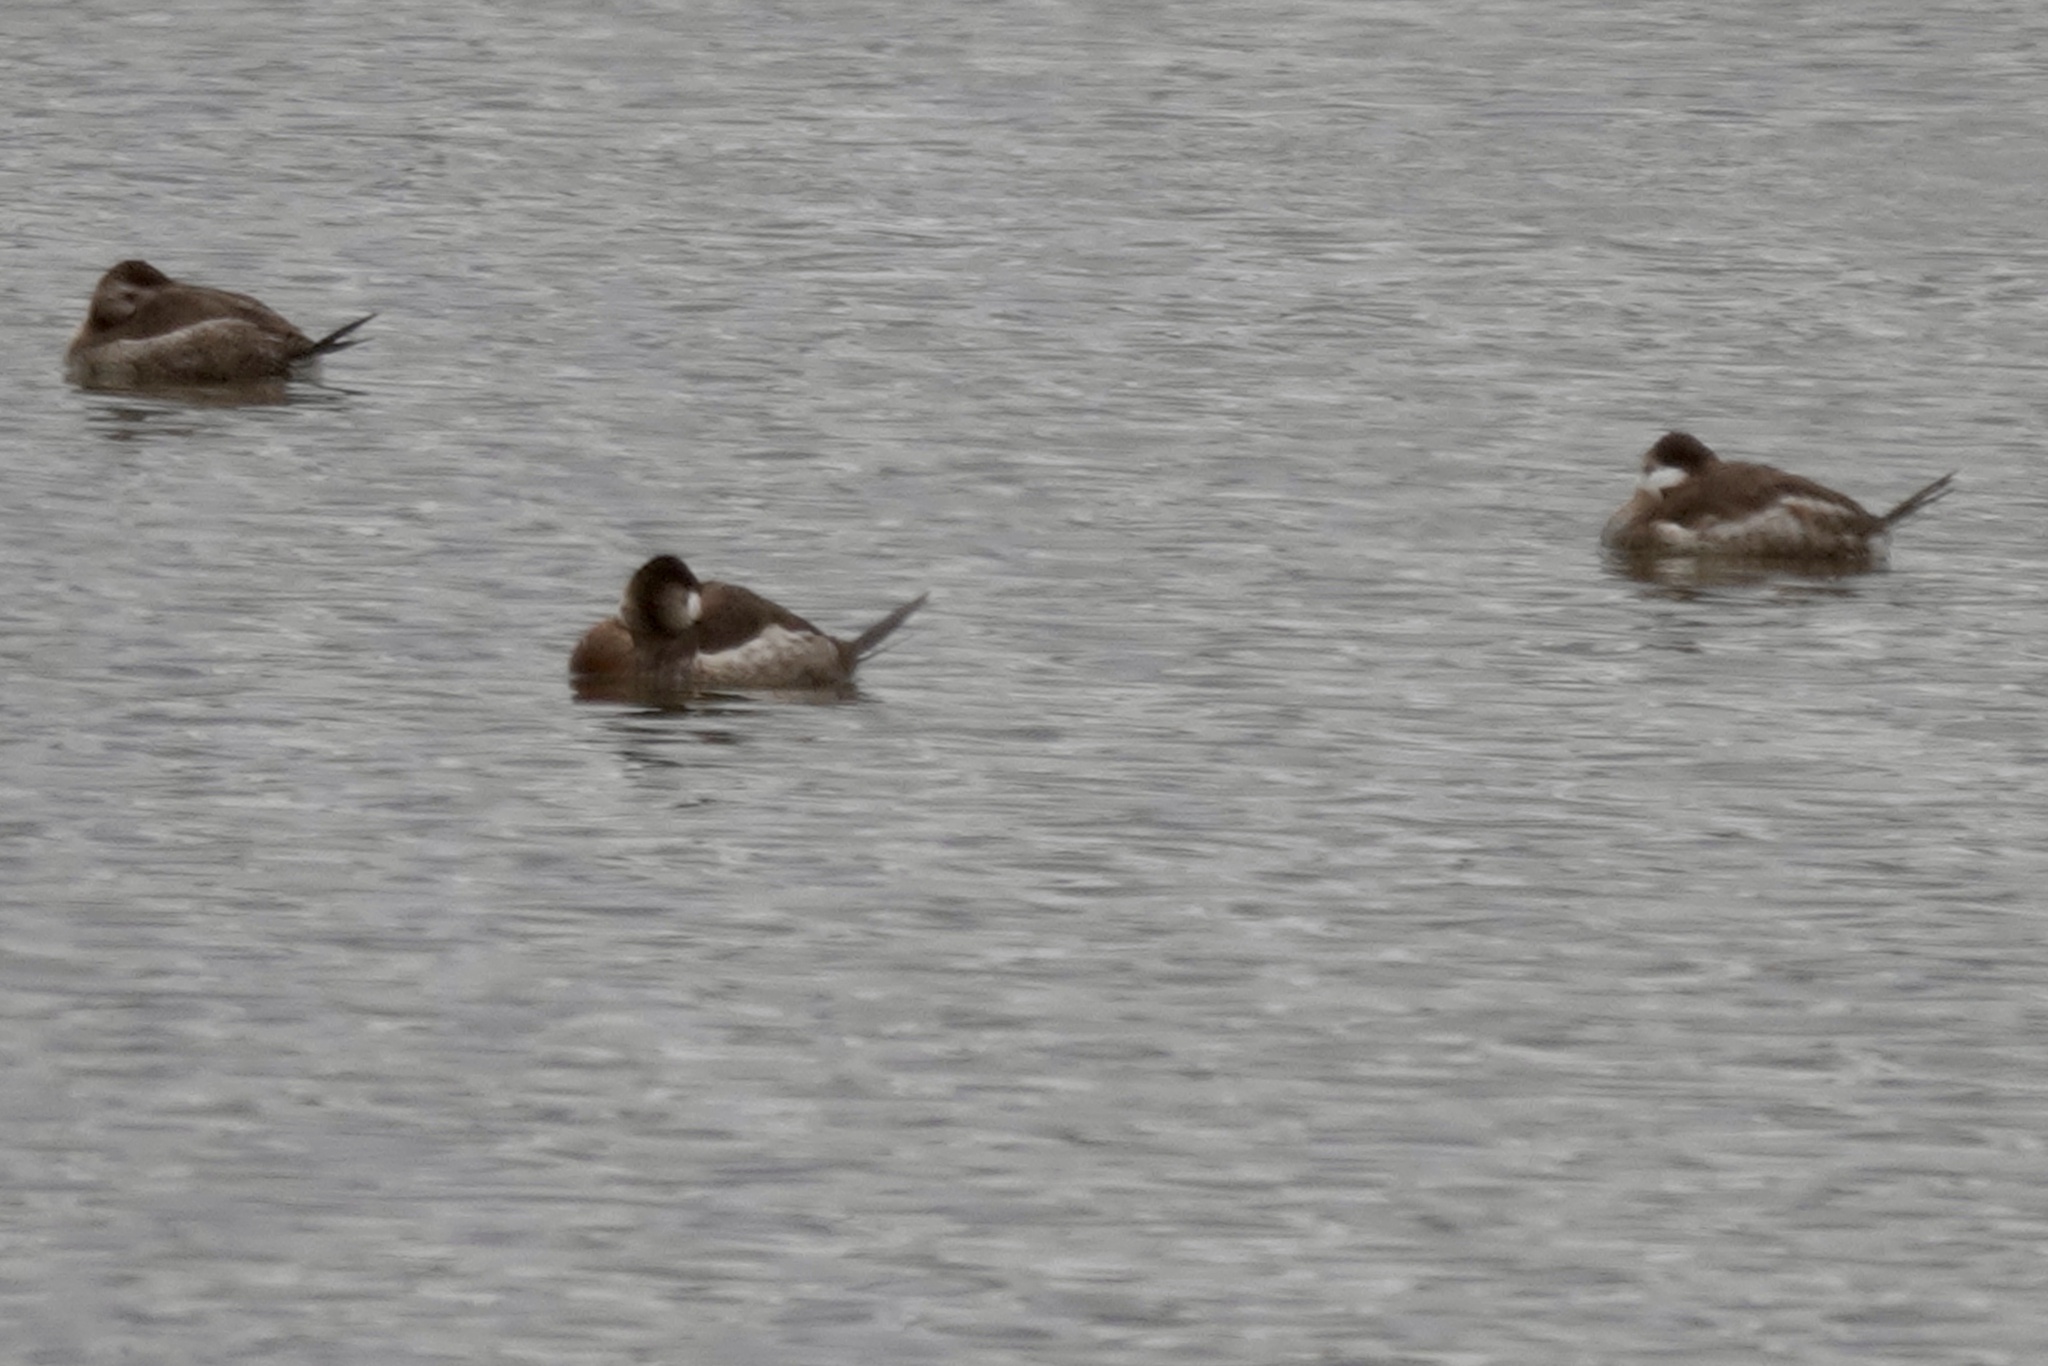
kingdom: Animalia
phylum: Chordata
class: Aves
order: Anseriformes
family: Anatidae
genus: Oxyura
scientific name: Oxyura jamaicensis
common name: Ruddy duck
